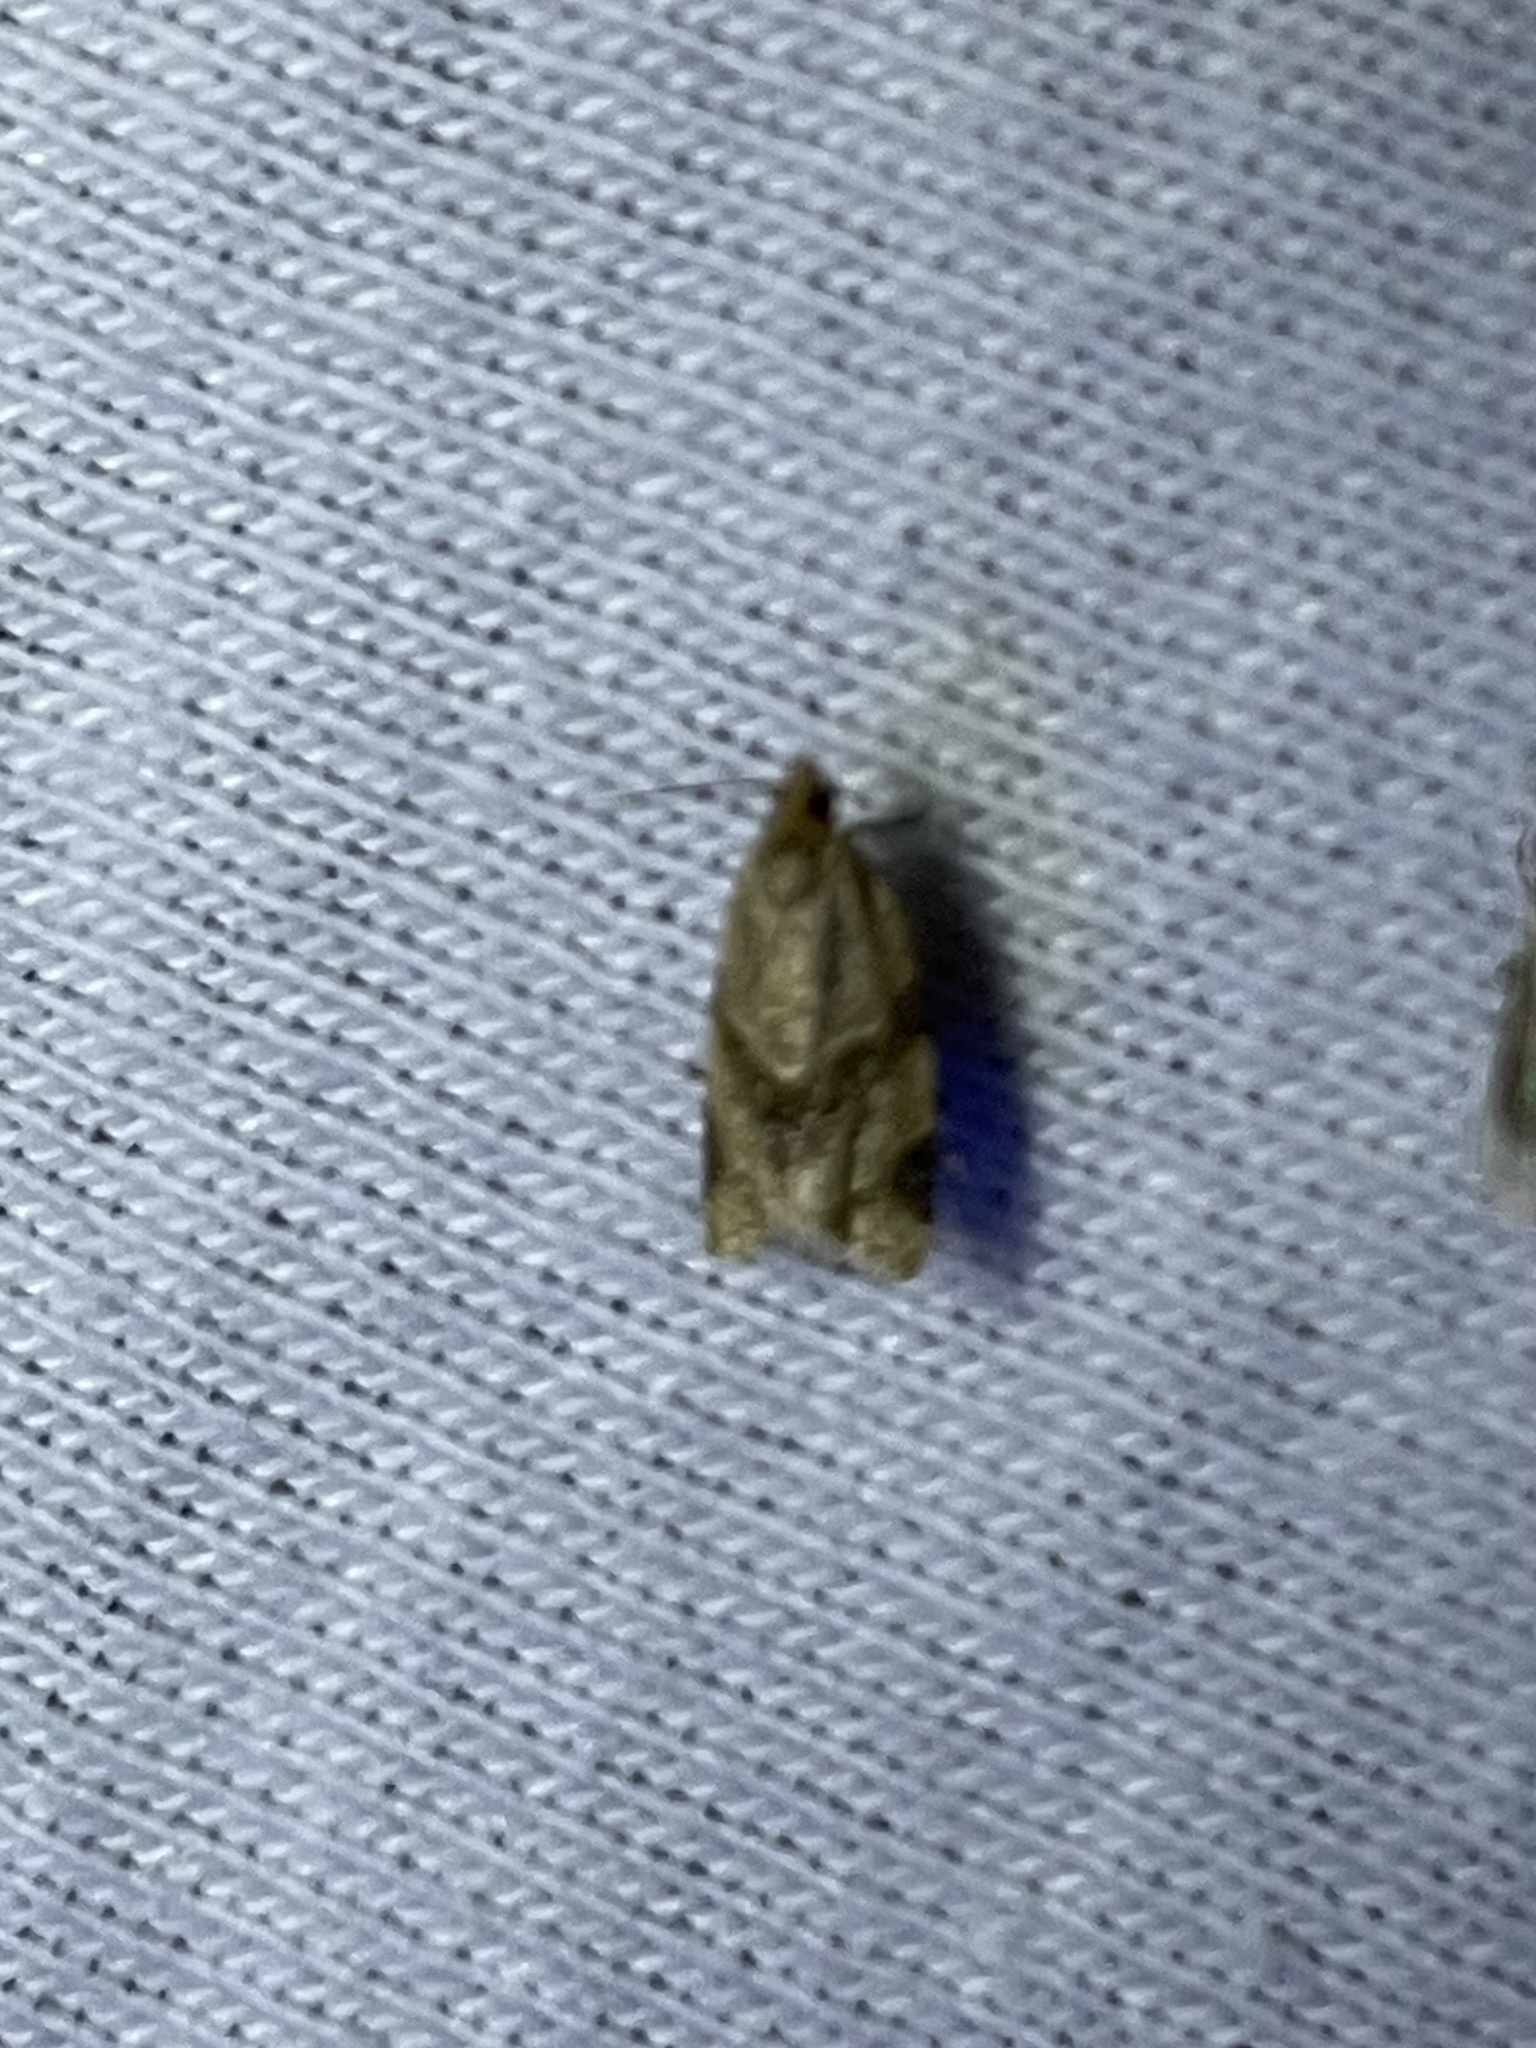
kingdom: Animalia
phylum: Arthropoda
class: Insecta
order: Lepidoptera
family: Tortricidae
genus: Clepsis
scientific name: Clepsis peritana
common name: Garden tortrix
